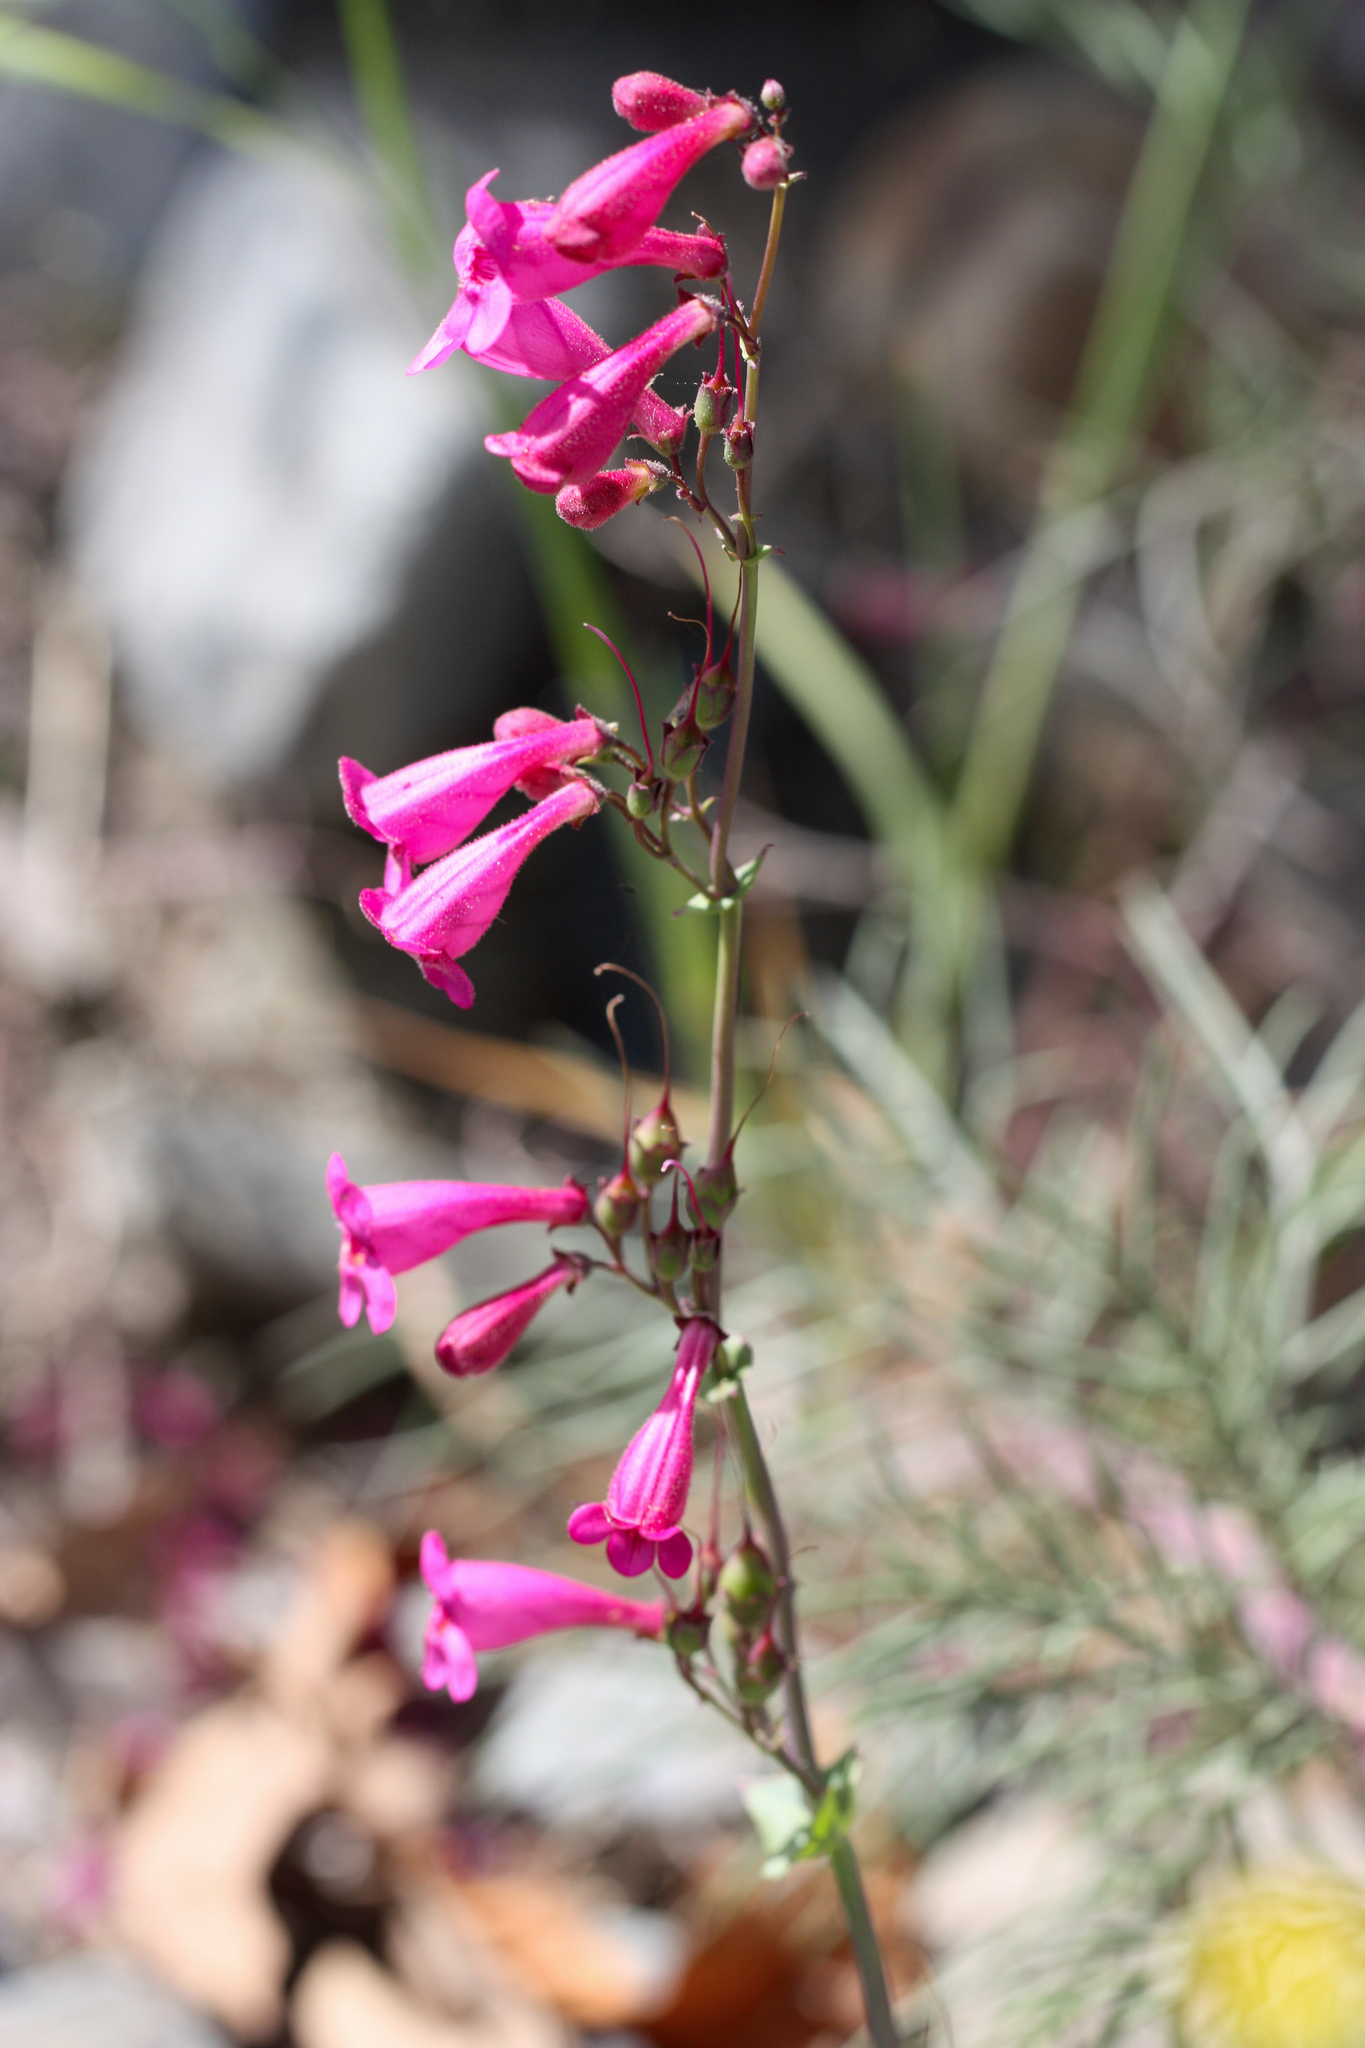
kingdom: Plantae
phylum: Tracheophyta
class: Magnoliopsida
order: Lamiales
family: Plantaginaceae
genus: Penstemon
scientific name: Penstemon pseudospectabilis
